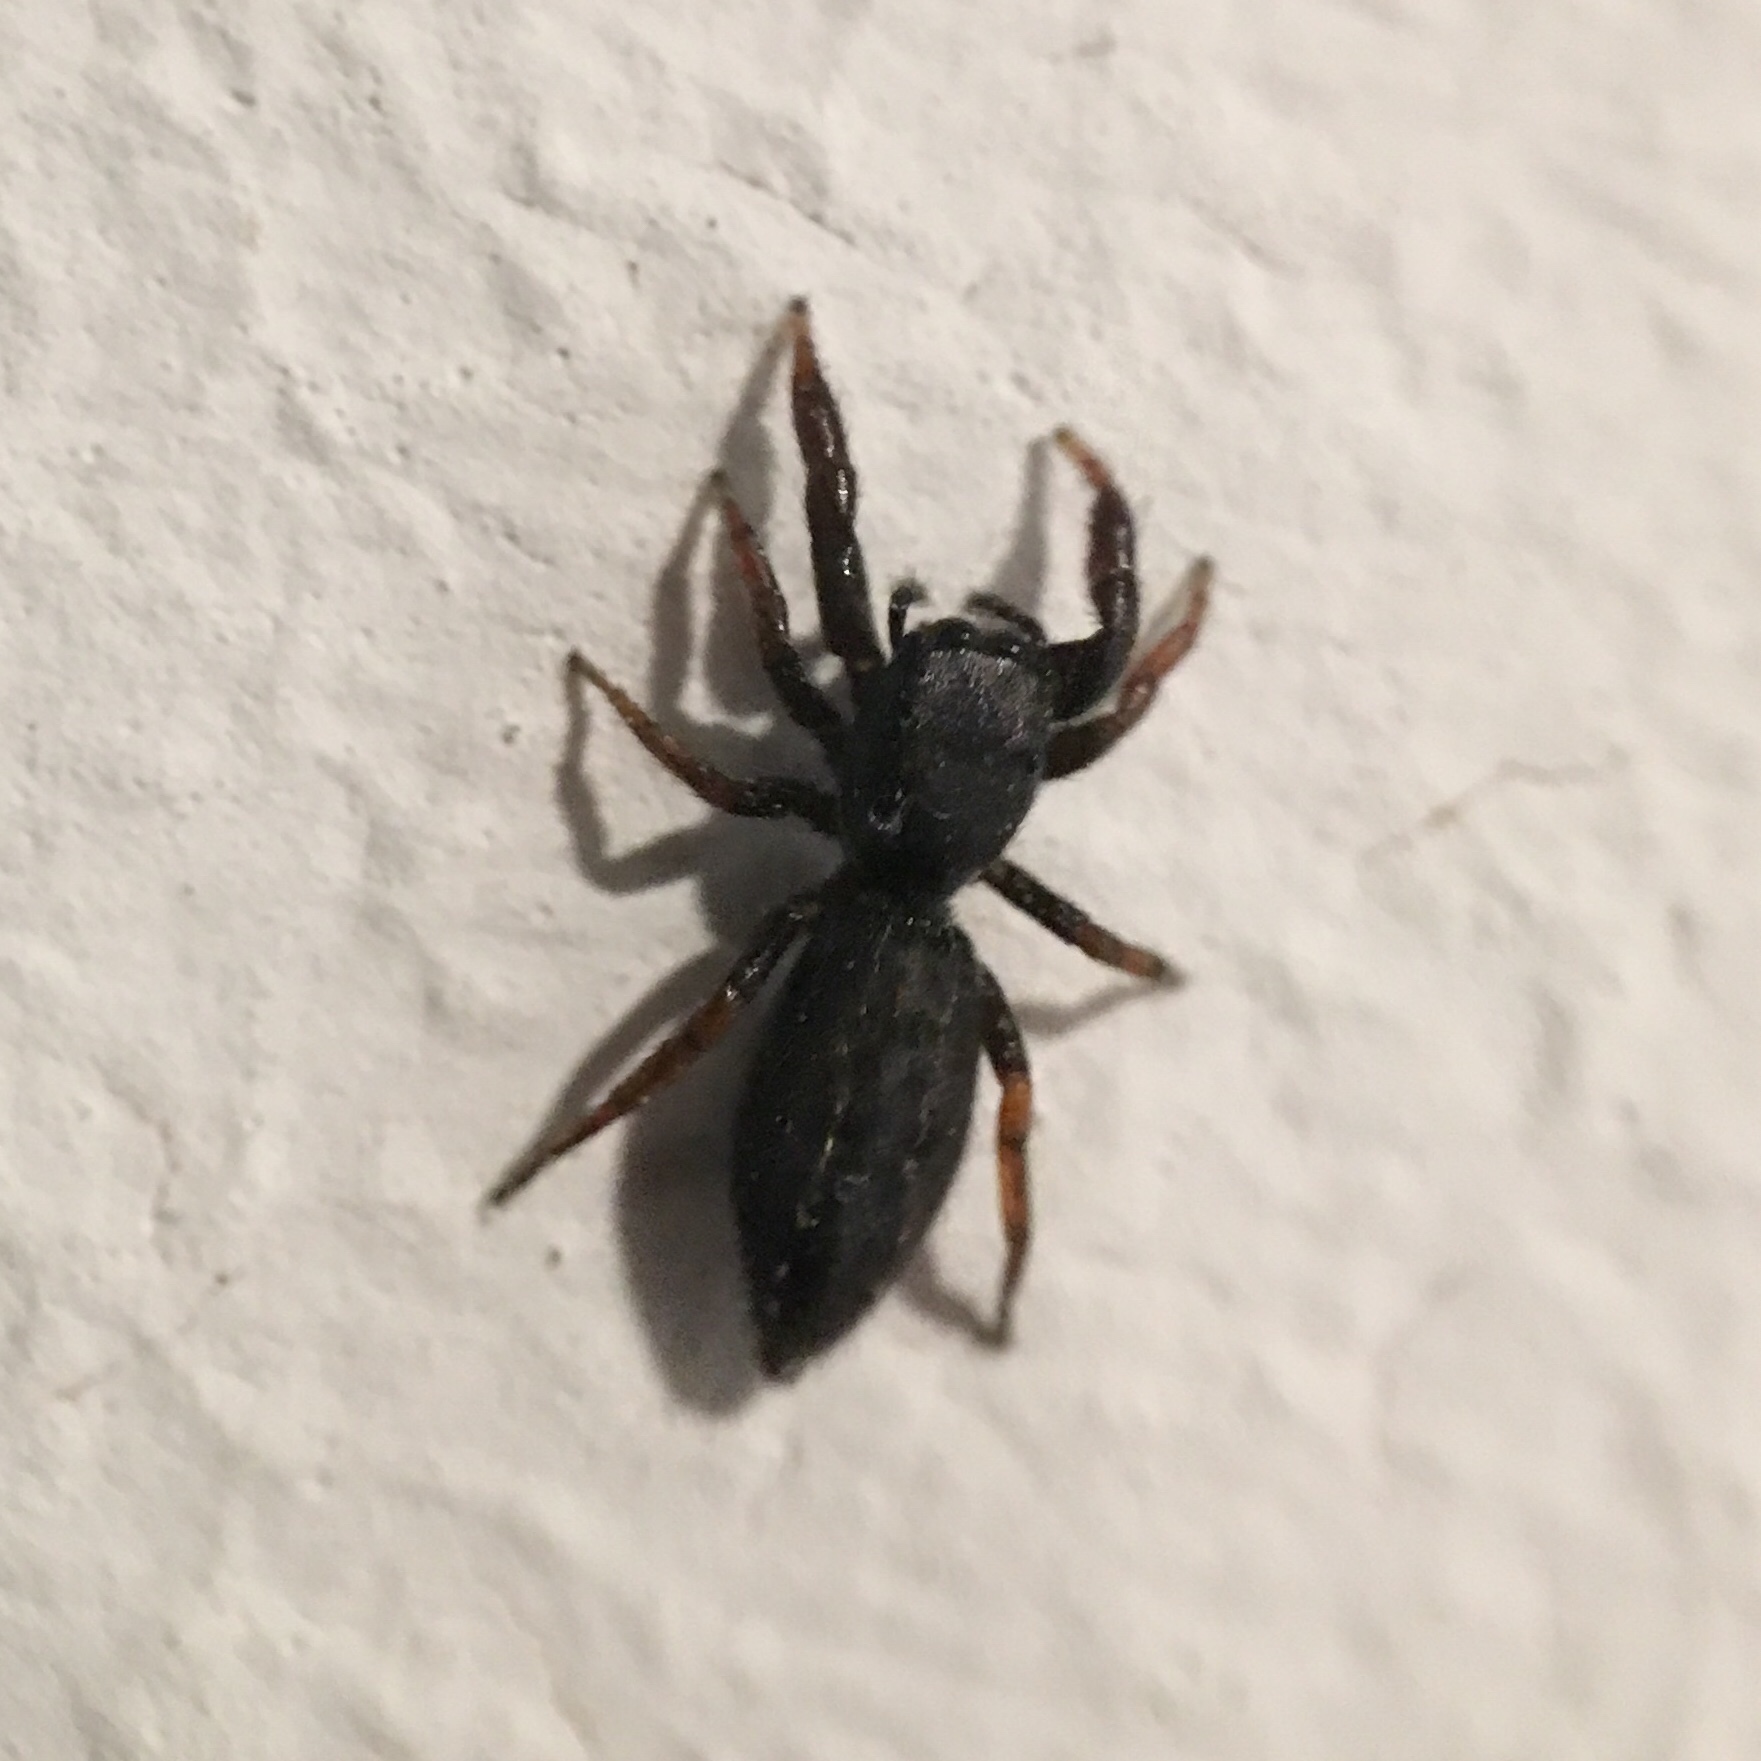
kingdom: Animalia
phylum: Arthropoda
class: Arachnida
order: Araneae
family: Salticidae
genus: Metacyrba
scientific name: Metacyrba taeniola
